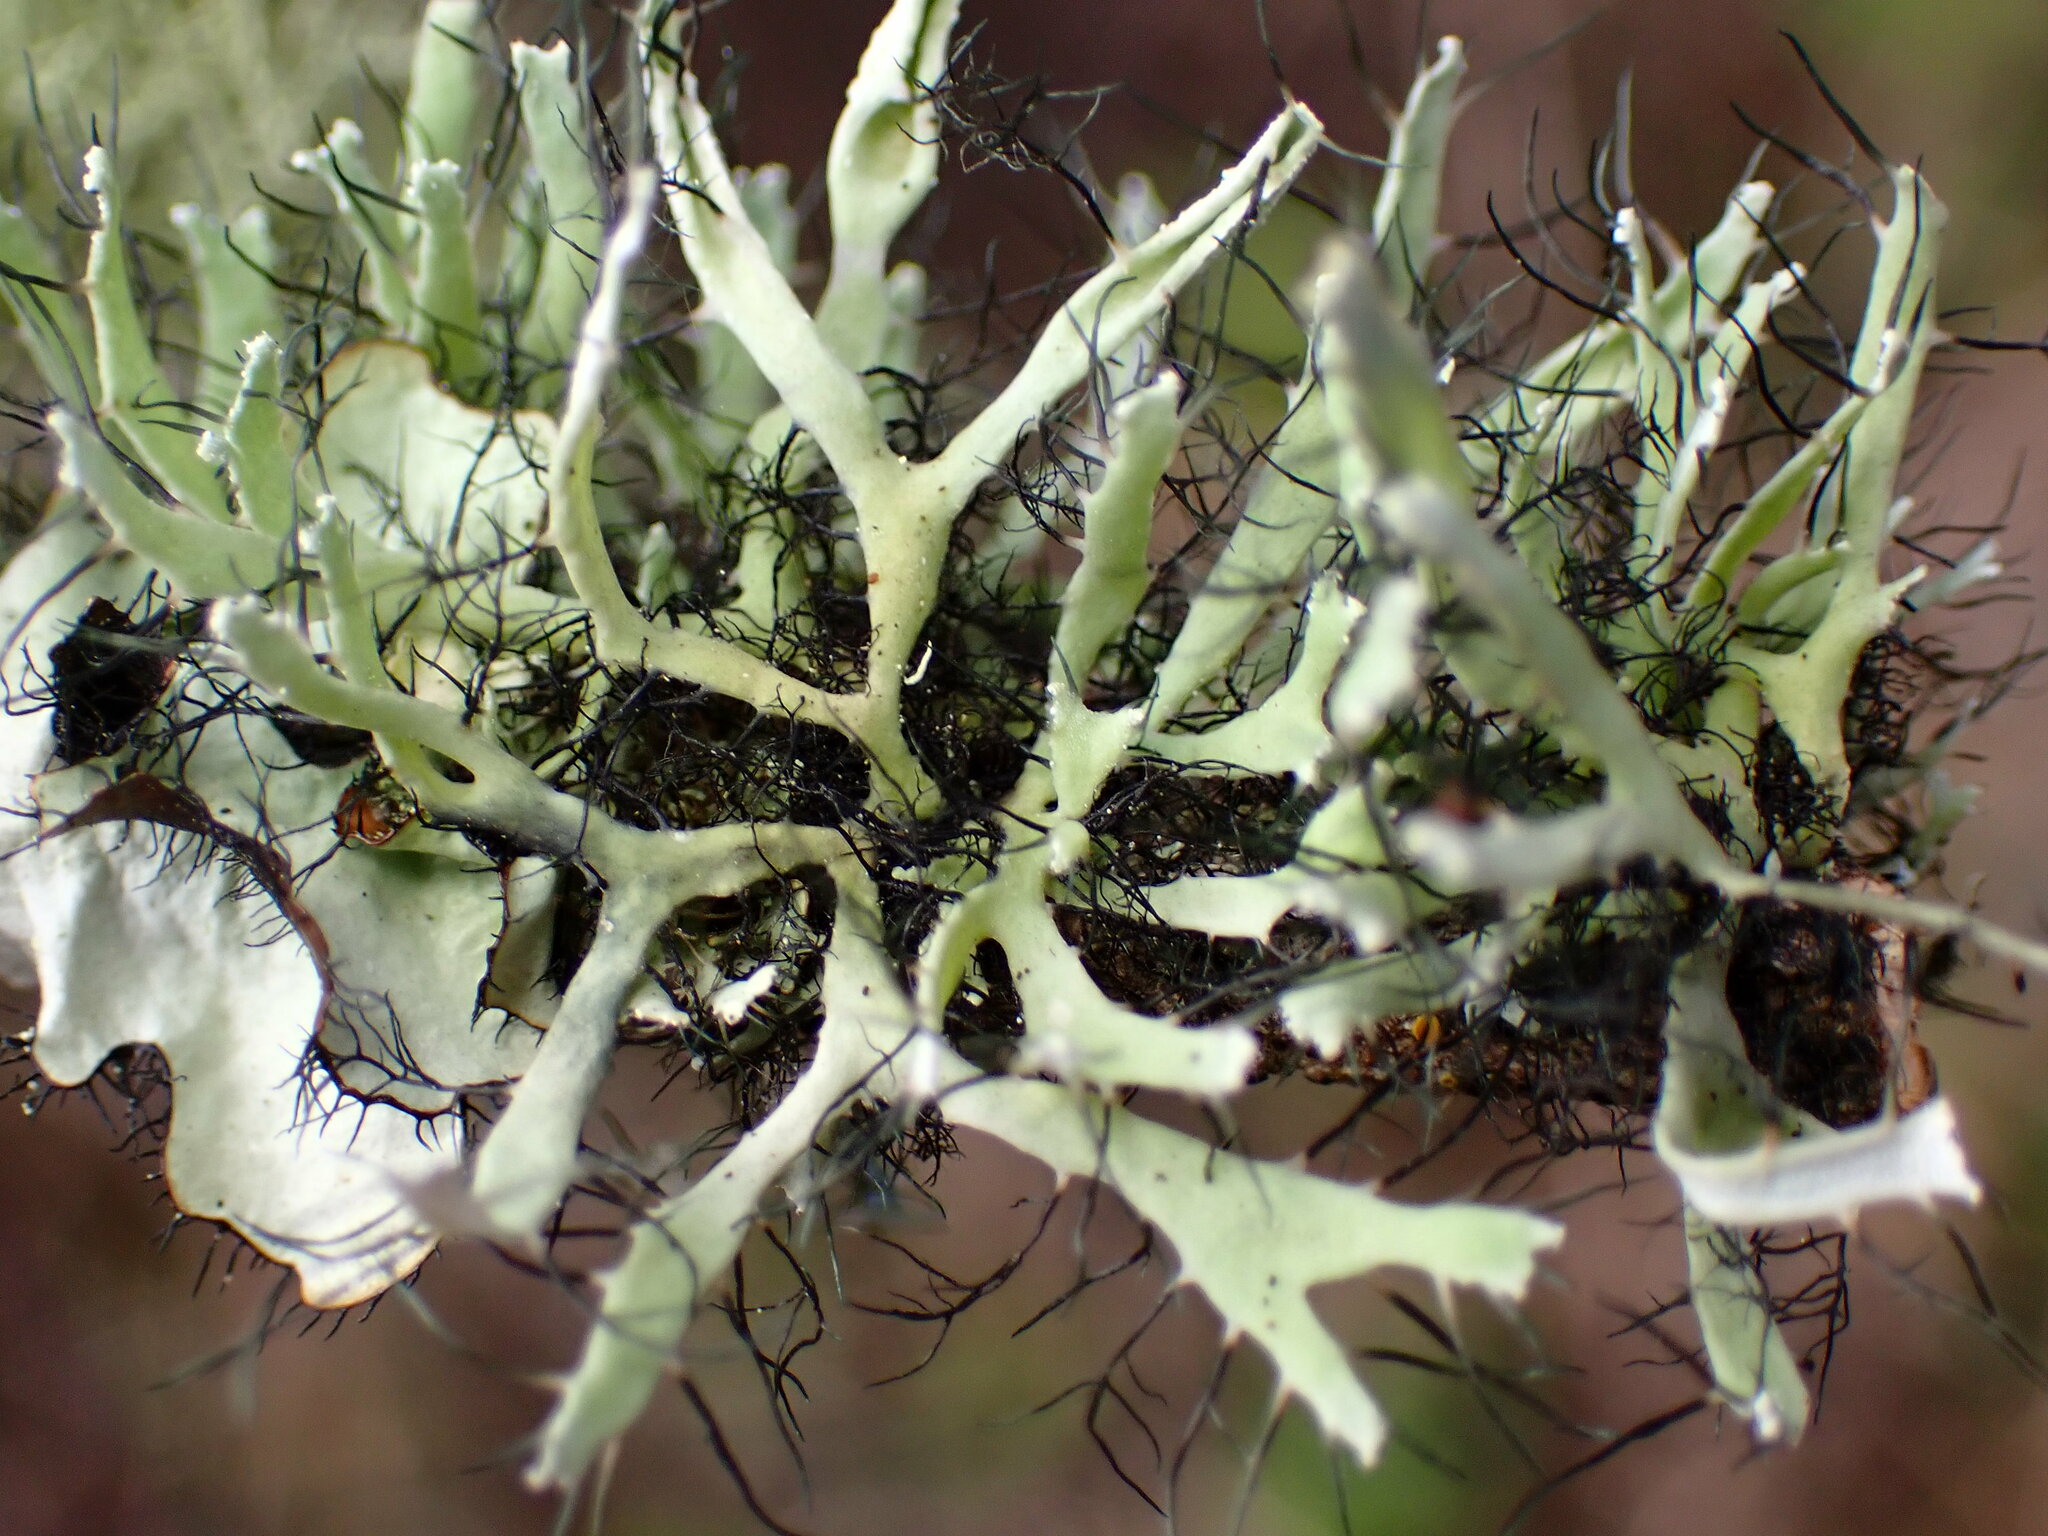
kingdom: Fungi
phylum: Ascomycota
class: Lecanoromycetes
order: Caliciales
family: Physciaceae
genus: Leucodermia
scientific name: Leucodermia leucomelos
